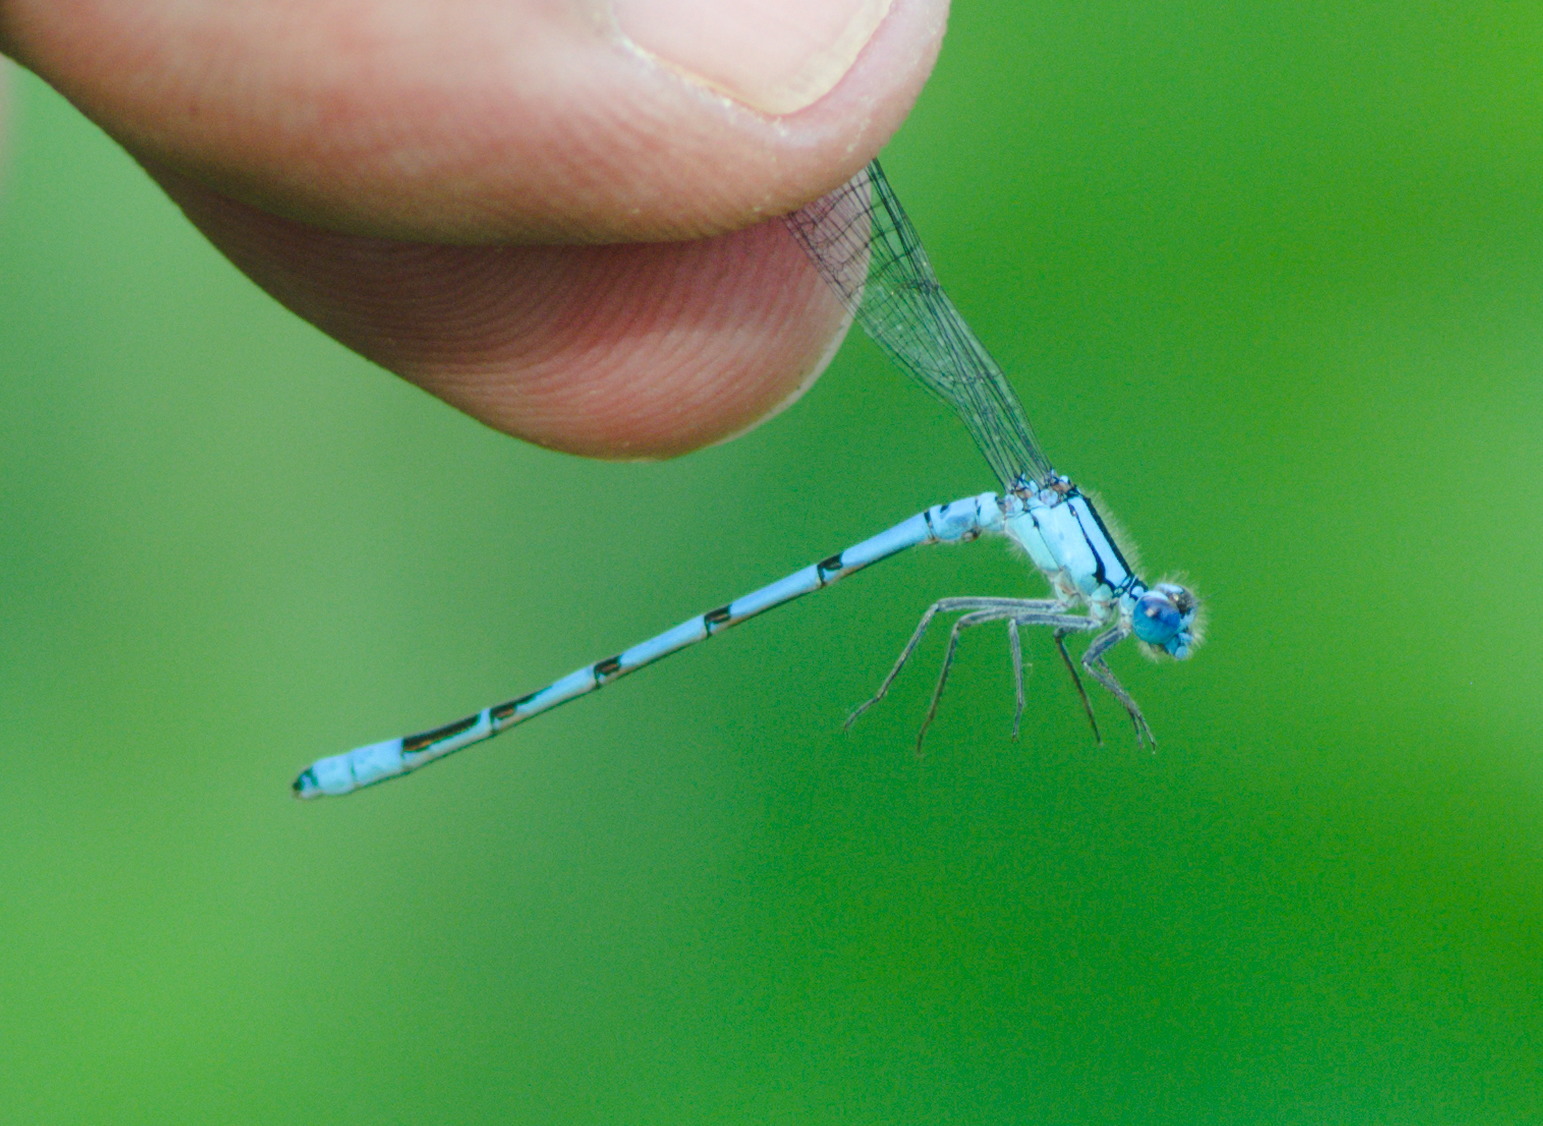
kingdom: Animalia
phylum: Arthropoda
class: Insecta
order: Odonata
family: Coenagrionidae
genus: Enallagma
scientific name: Enallagma annexum
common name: Northern bluet
